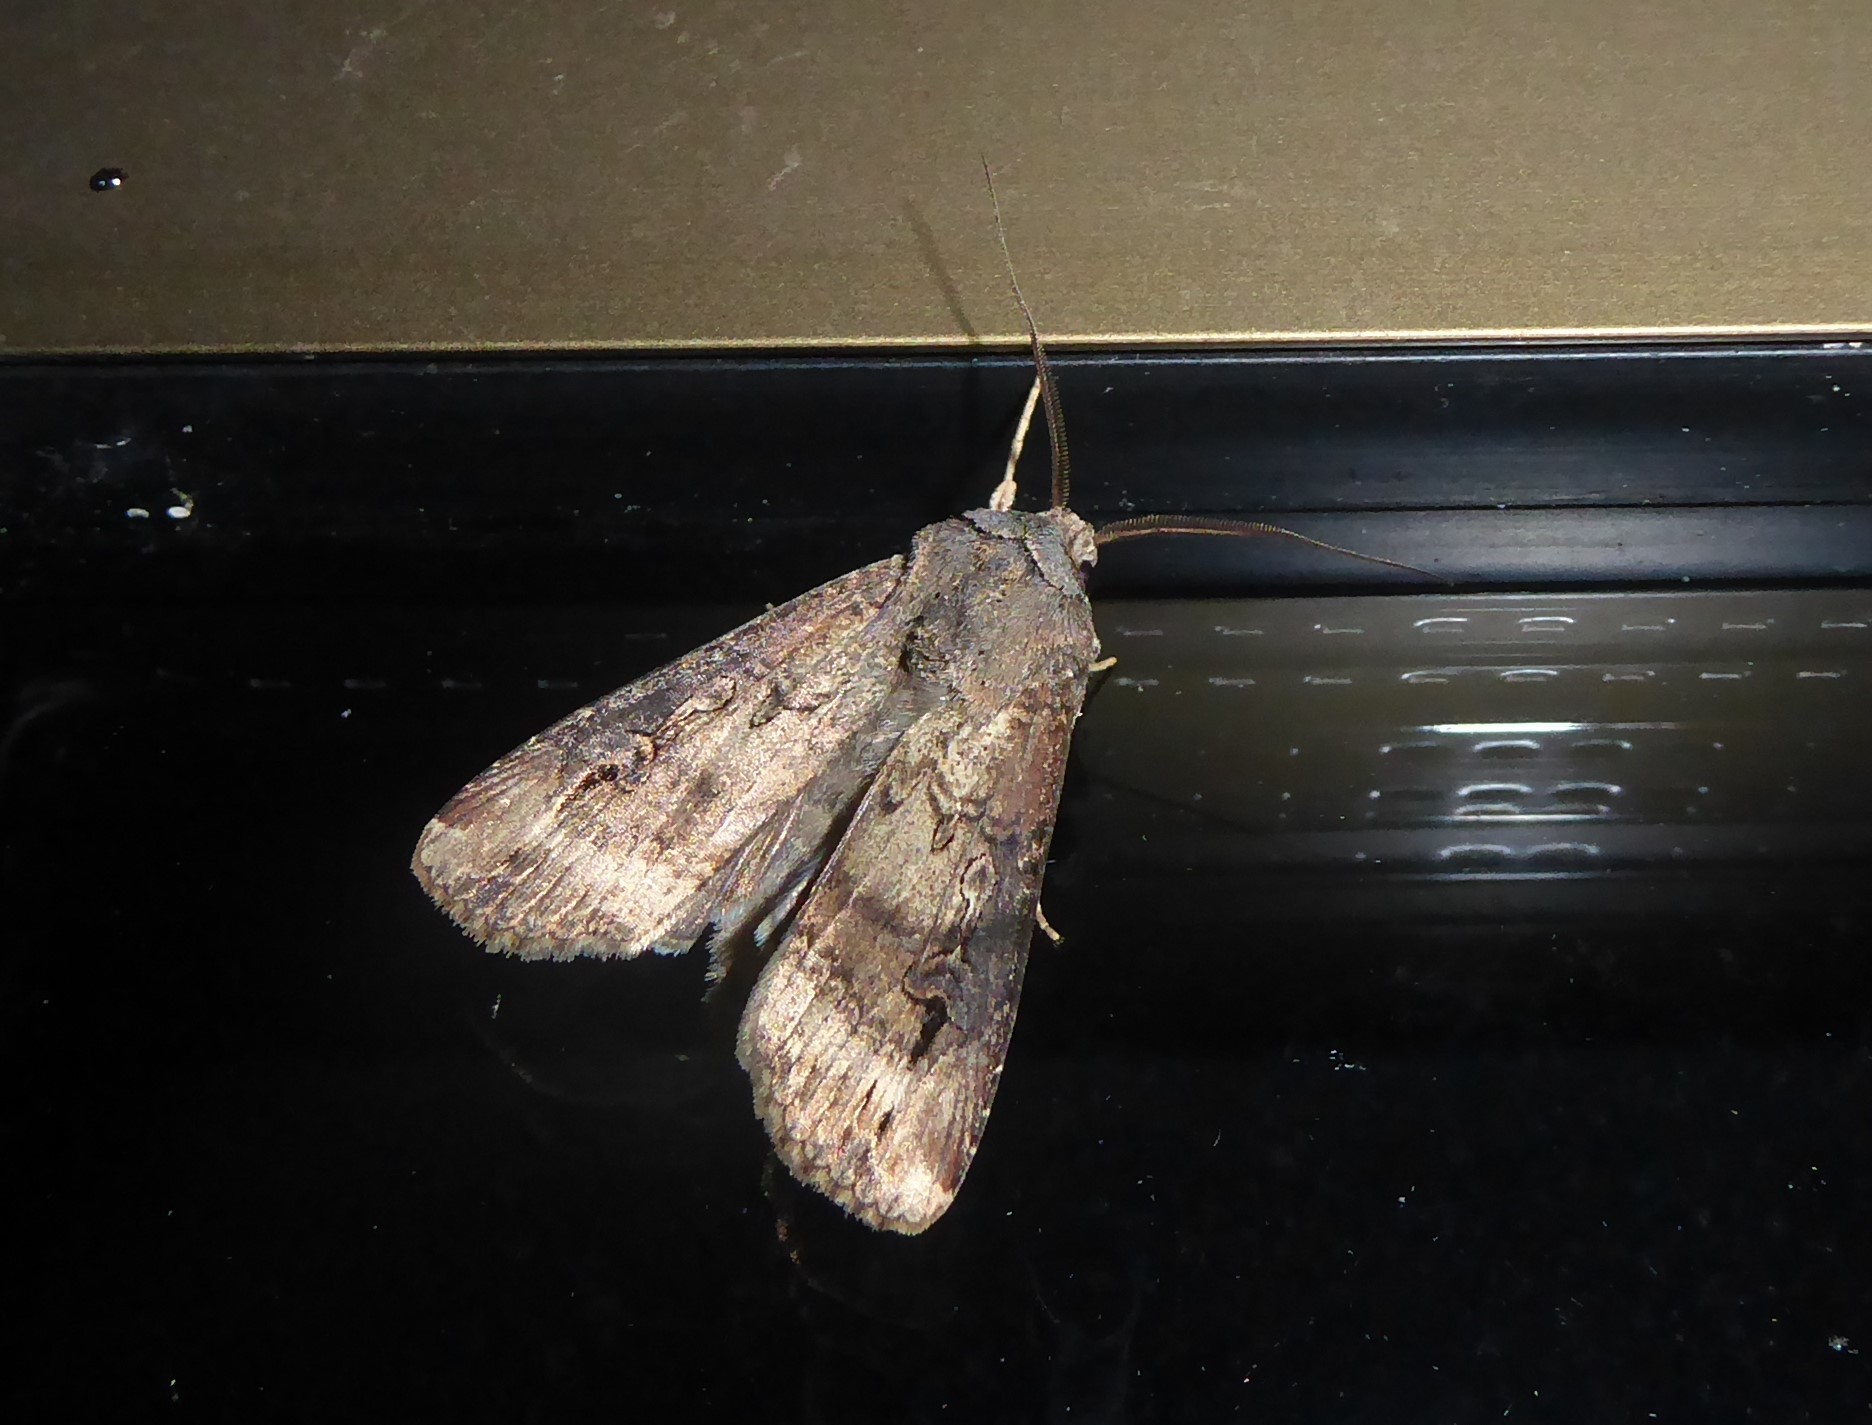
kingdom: Animalia
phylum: Arthropoda
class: Insecta
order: Lepidoptera
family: Noctuidae
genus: Agrotis
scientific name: Agrotis ipsilon
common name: Dark sword-grass
